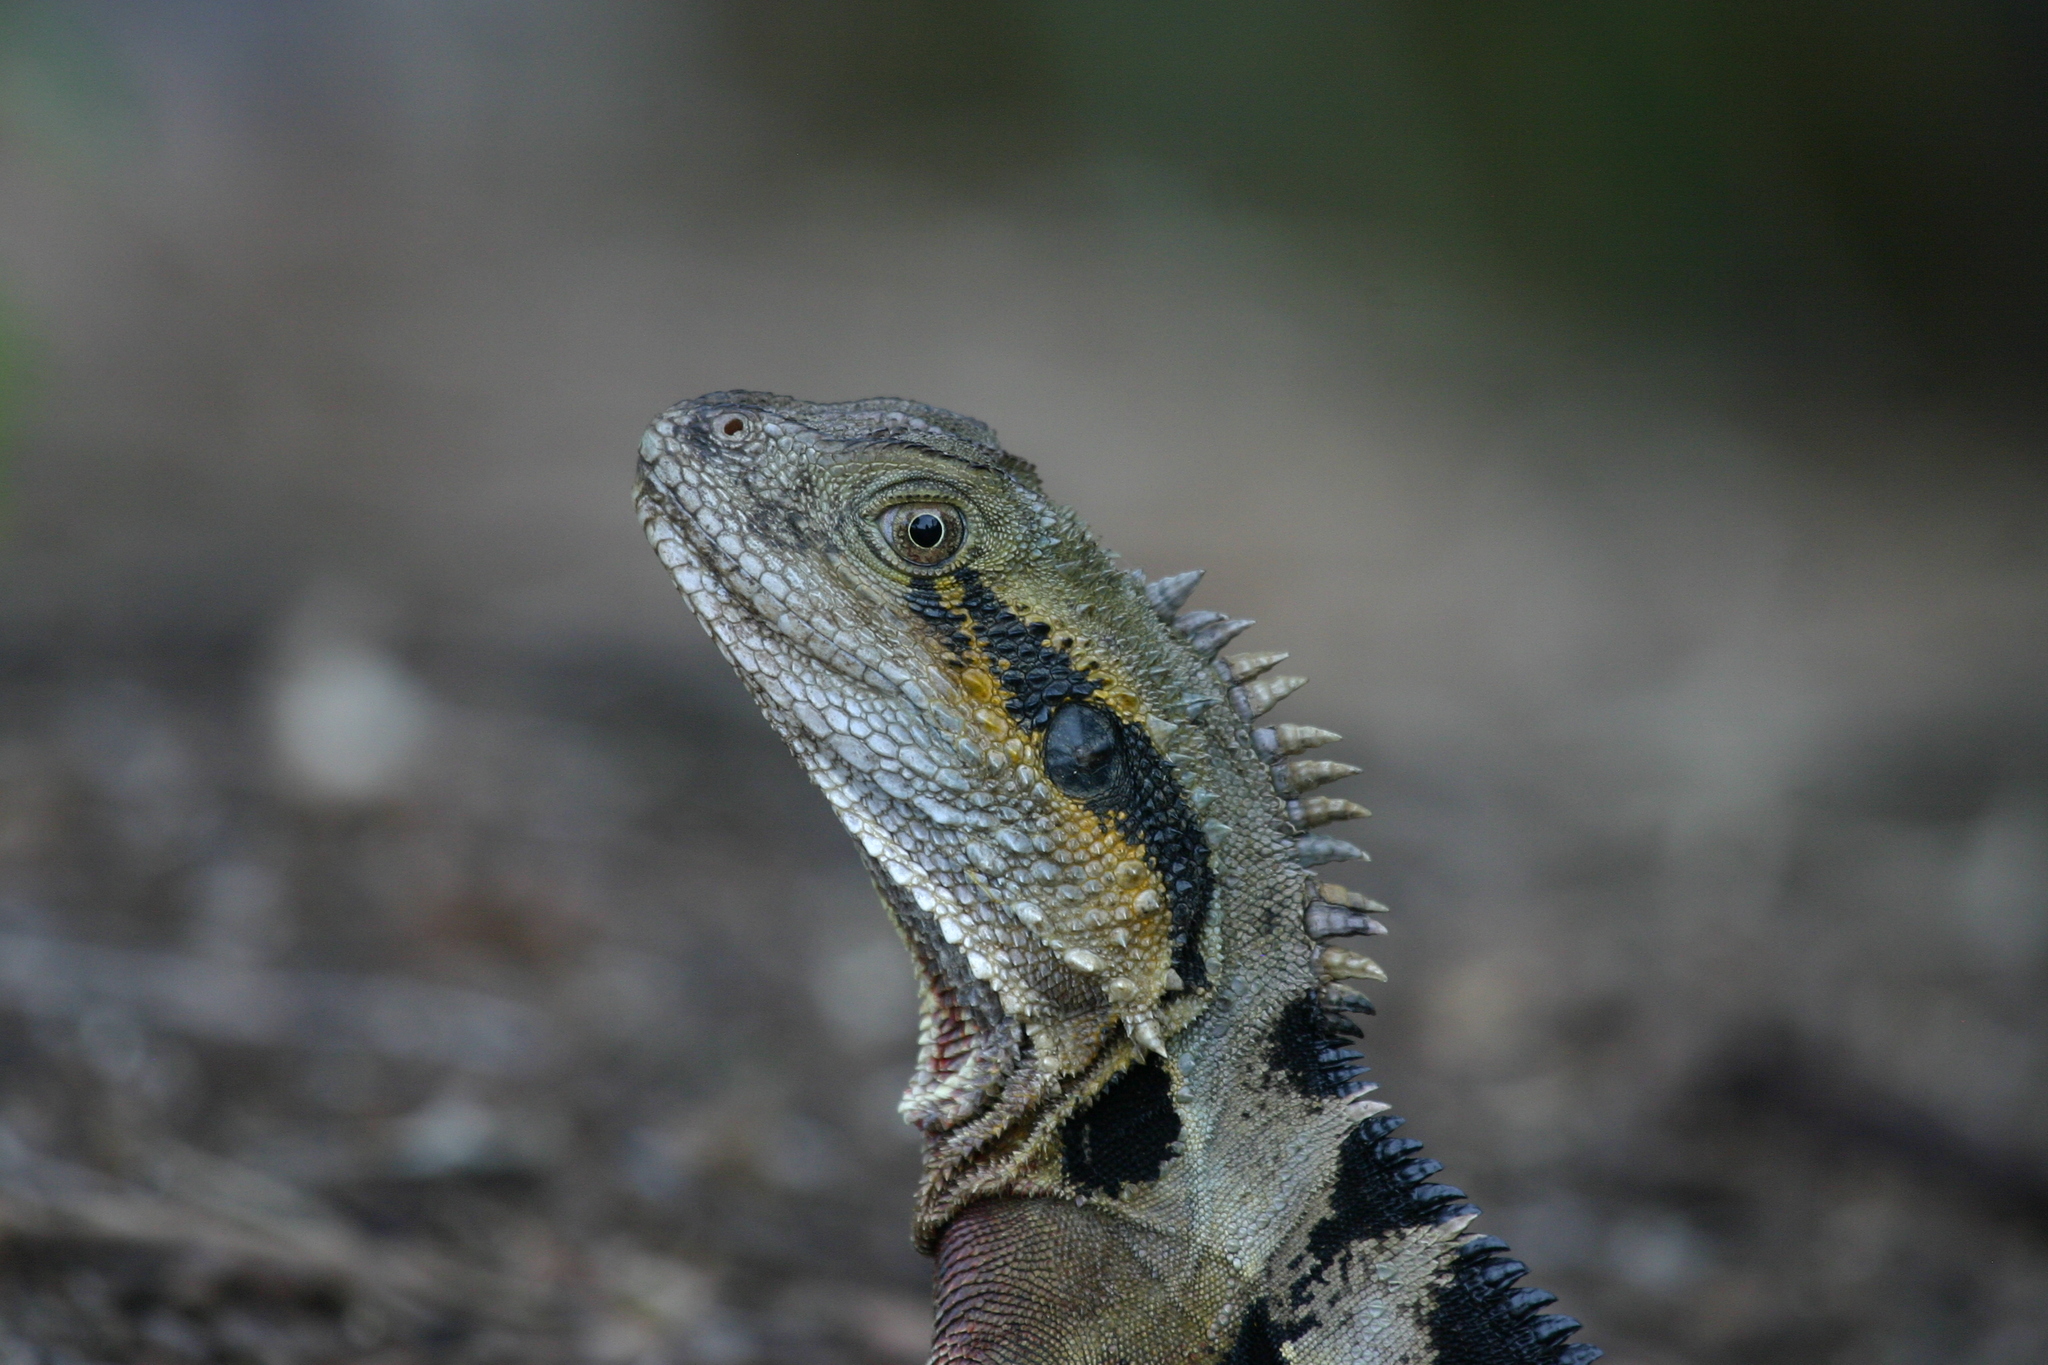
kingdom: Animalia
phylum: Chordata
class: Squamata
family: Agamidae
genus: Intellagama
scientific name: Intellagama lesueurii
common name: Eastern water dragon
